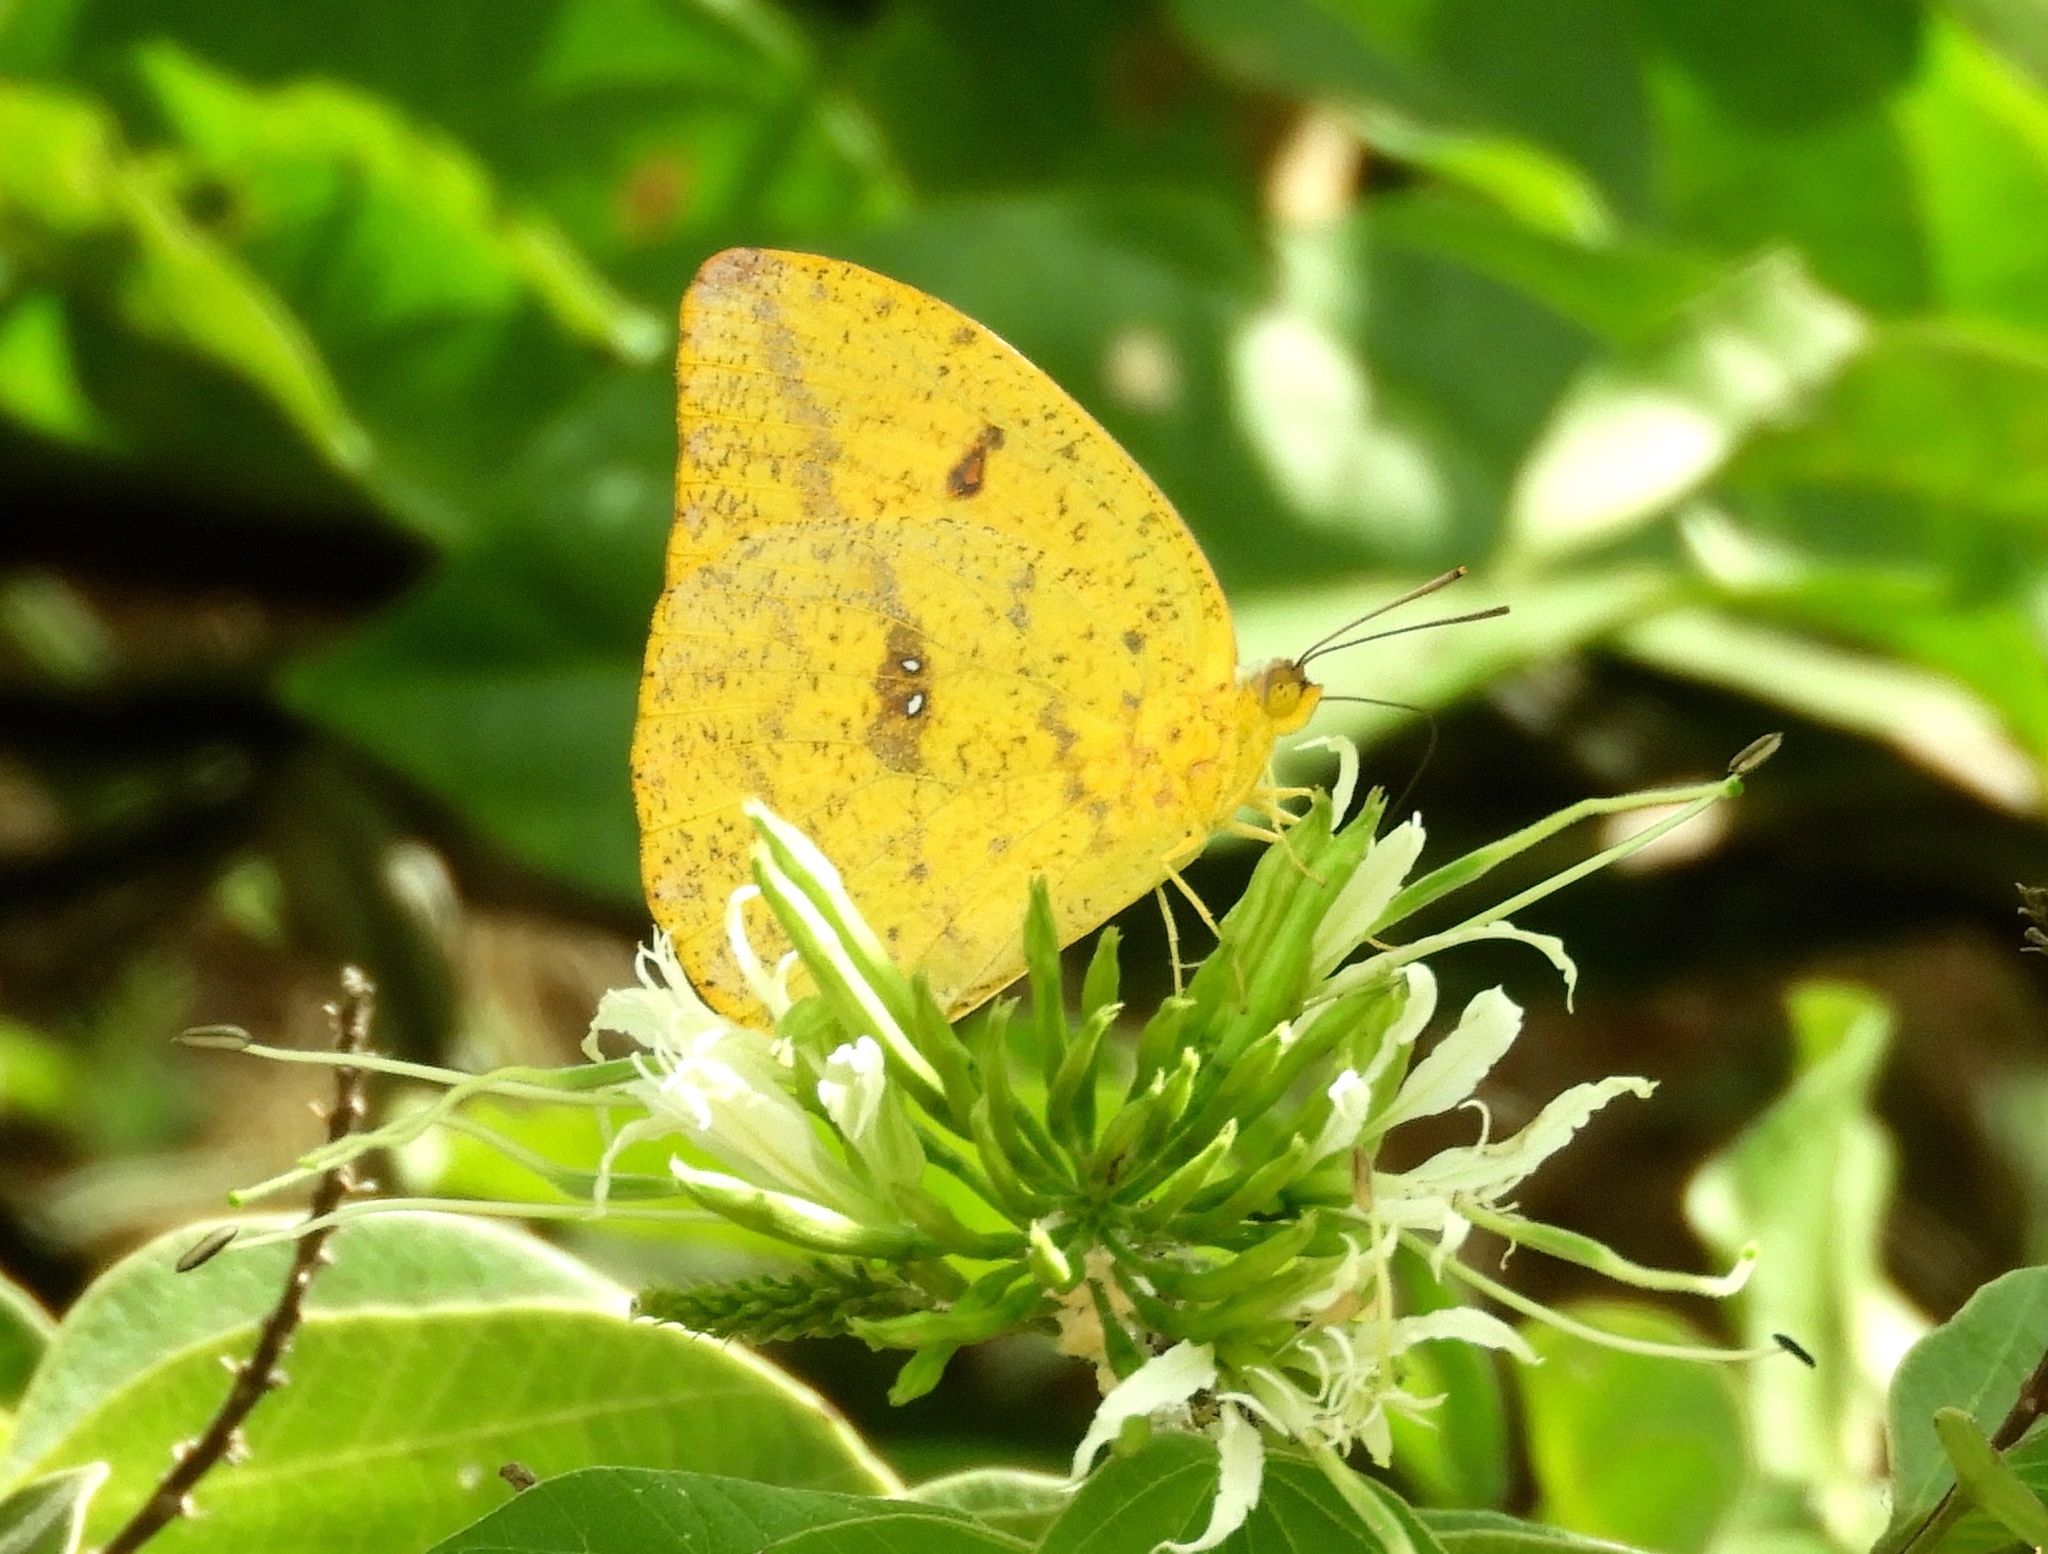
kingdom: Animalia
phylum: Arthropoda
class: Insecta
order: Lepidoptera
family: Pieridae
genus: Phoebis
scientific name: Phoebis marcellina
